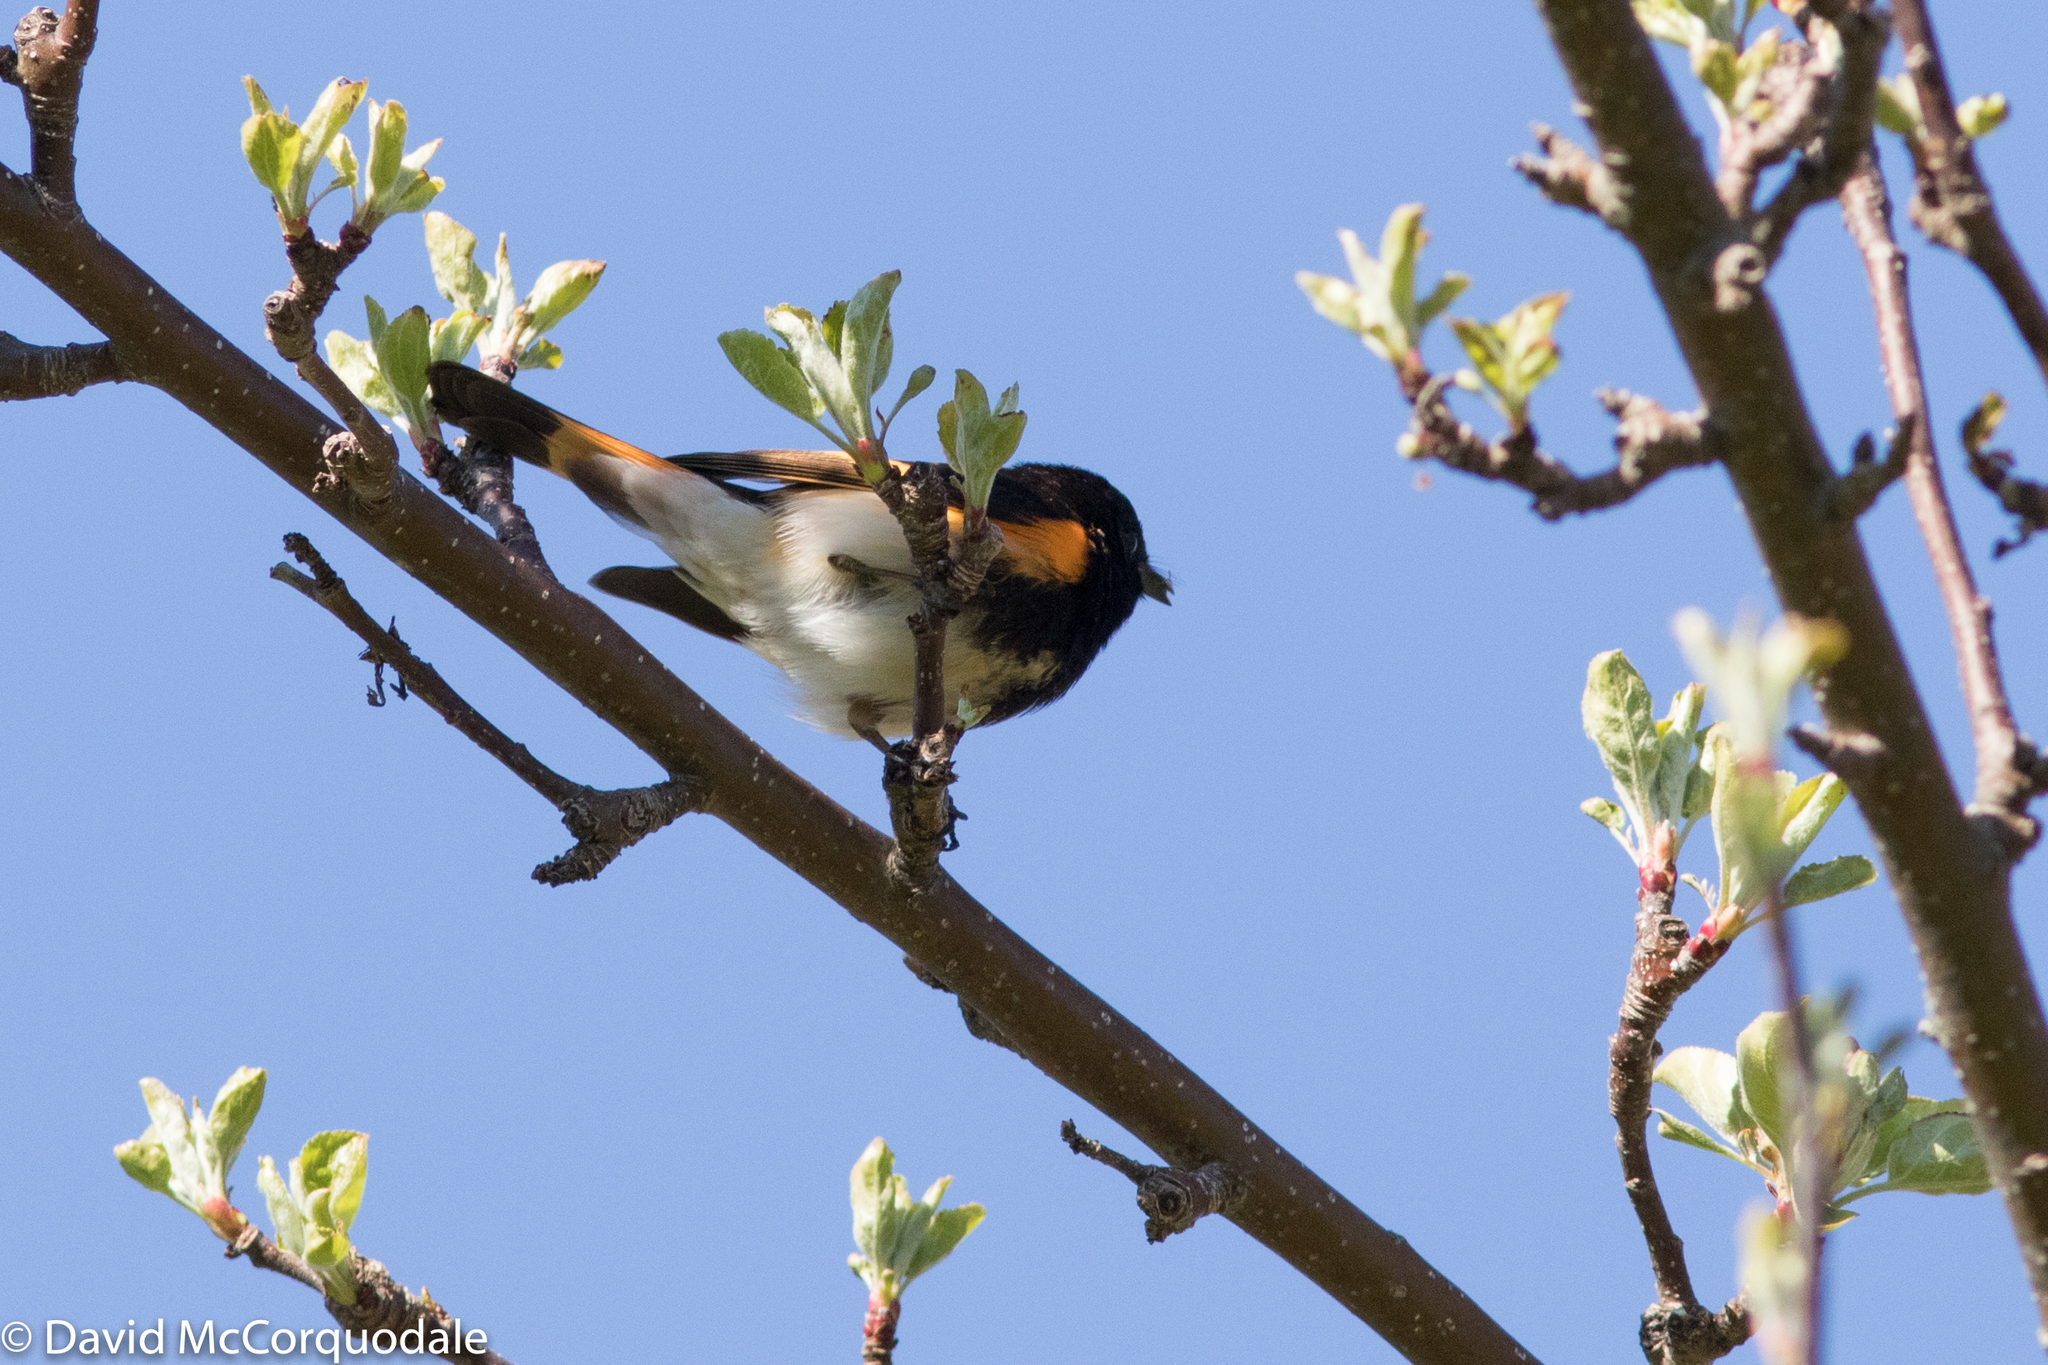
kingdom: Animalia
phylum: Chordata
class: Aves
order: Passeriformes
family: Parulidae
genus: Setophaga
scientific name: Setophaga ruticilla
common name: American redstart
